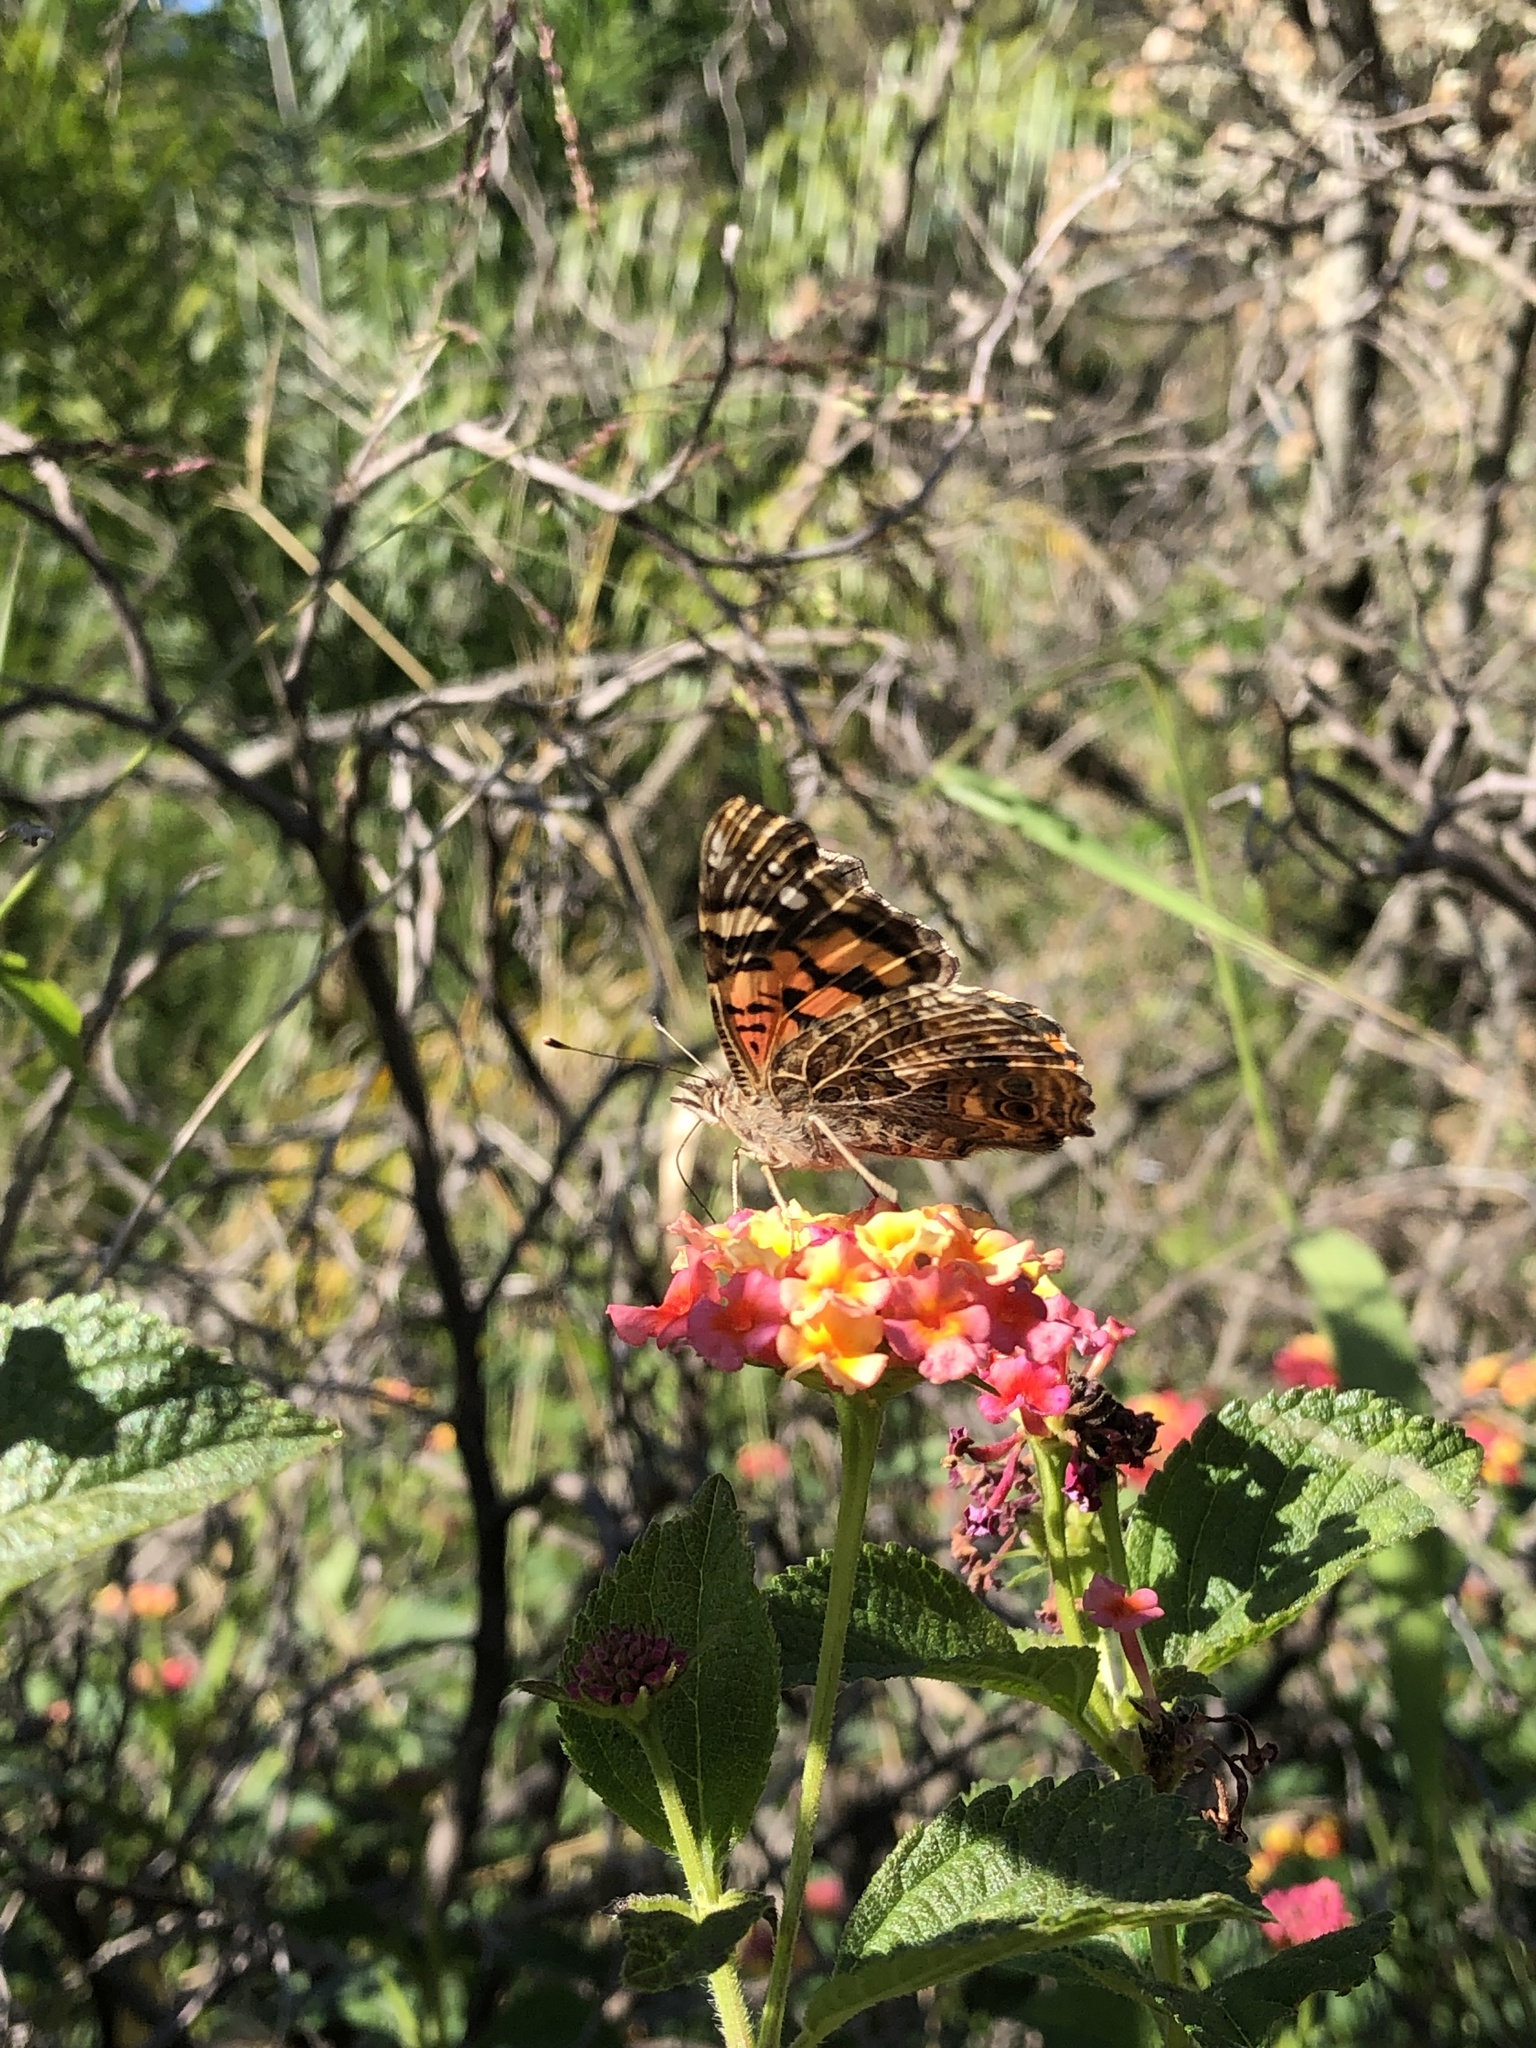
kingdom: Animalia
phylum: Arthropoda
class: Insecta
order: Lepidoptera
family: Nymphalidae
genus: Vanessa
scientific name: Vanessa carye
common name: Subtropical lady
